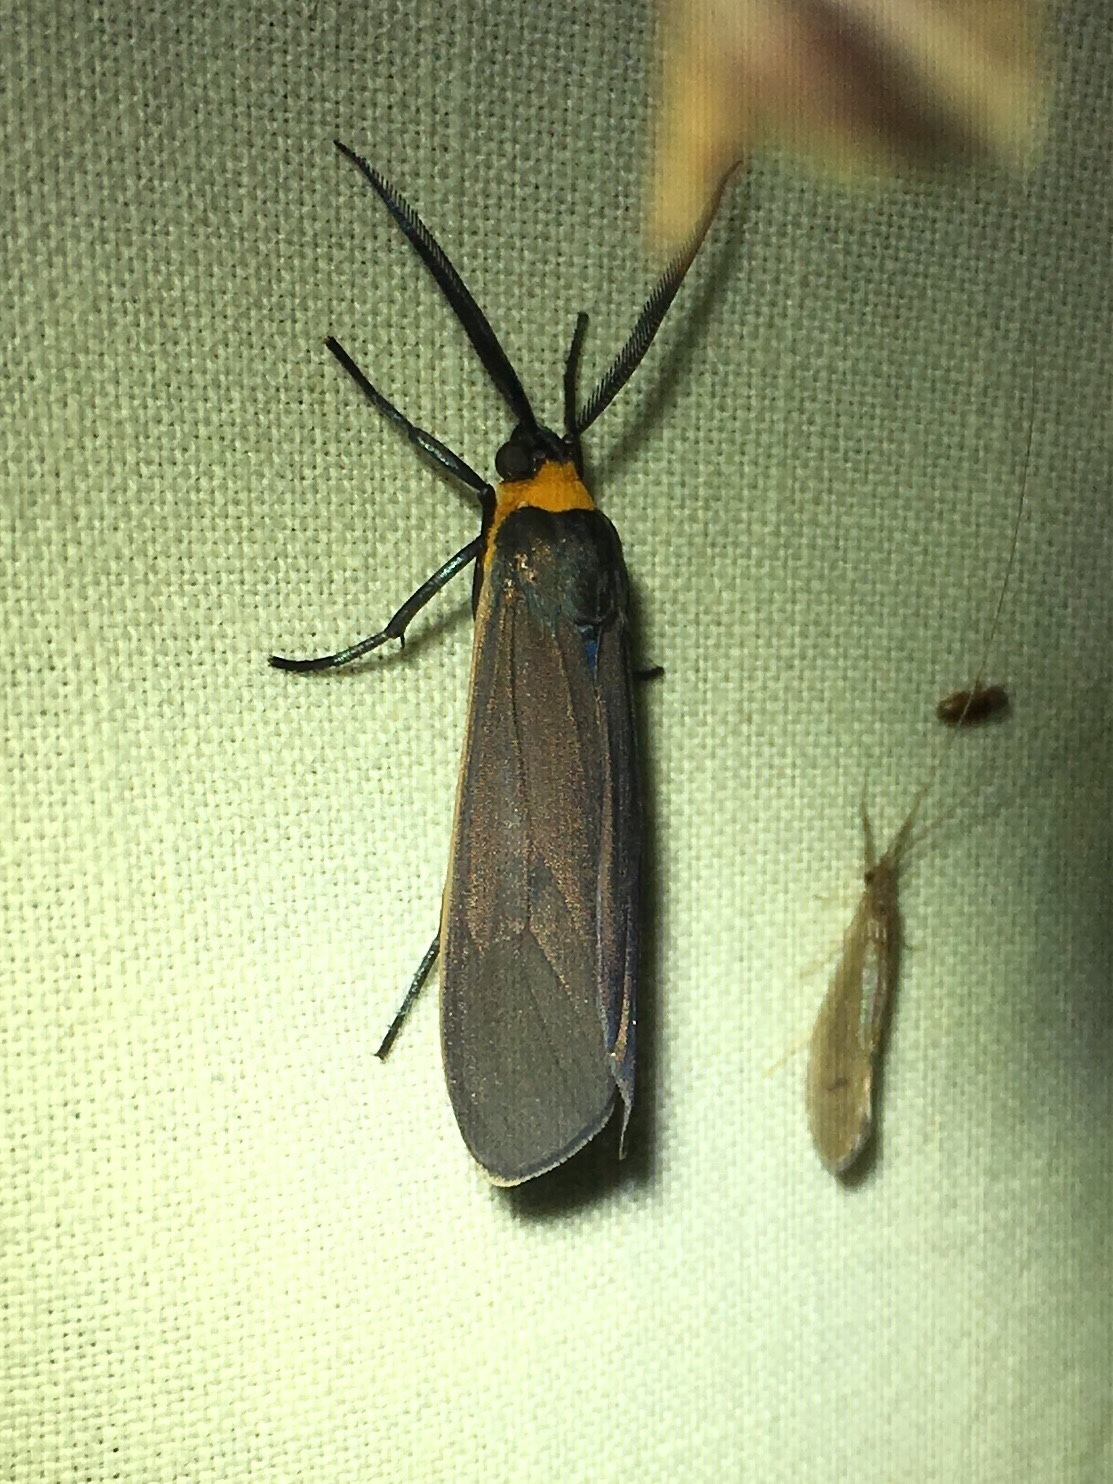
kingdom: Animalia
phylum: Arthropoda
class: Insecta
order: Lepidoptera
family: Erebidae
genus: Cisseps
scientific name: Cisseps fulvicollis
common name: Yellow-collared scape moth
